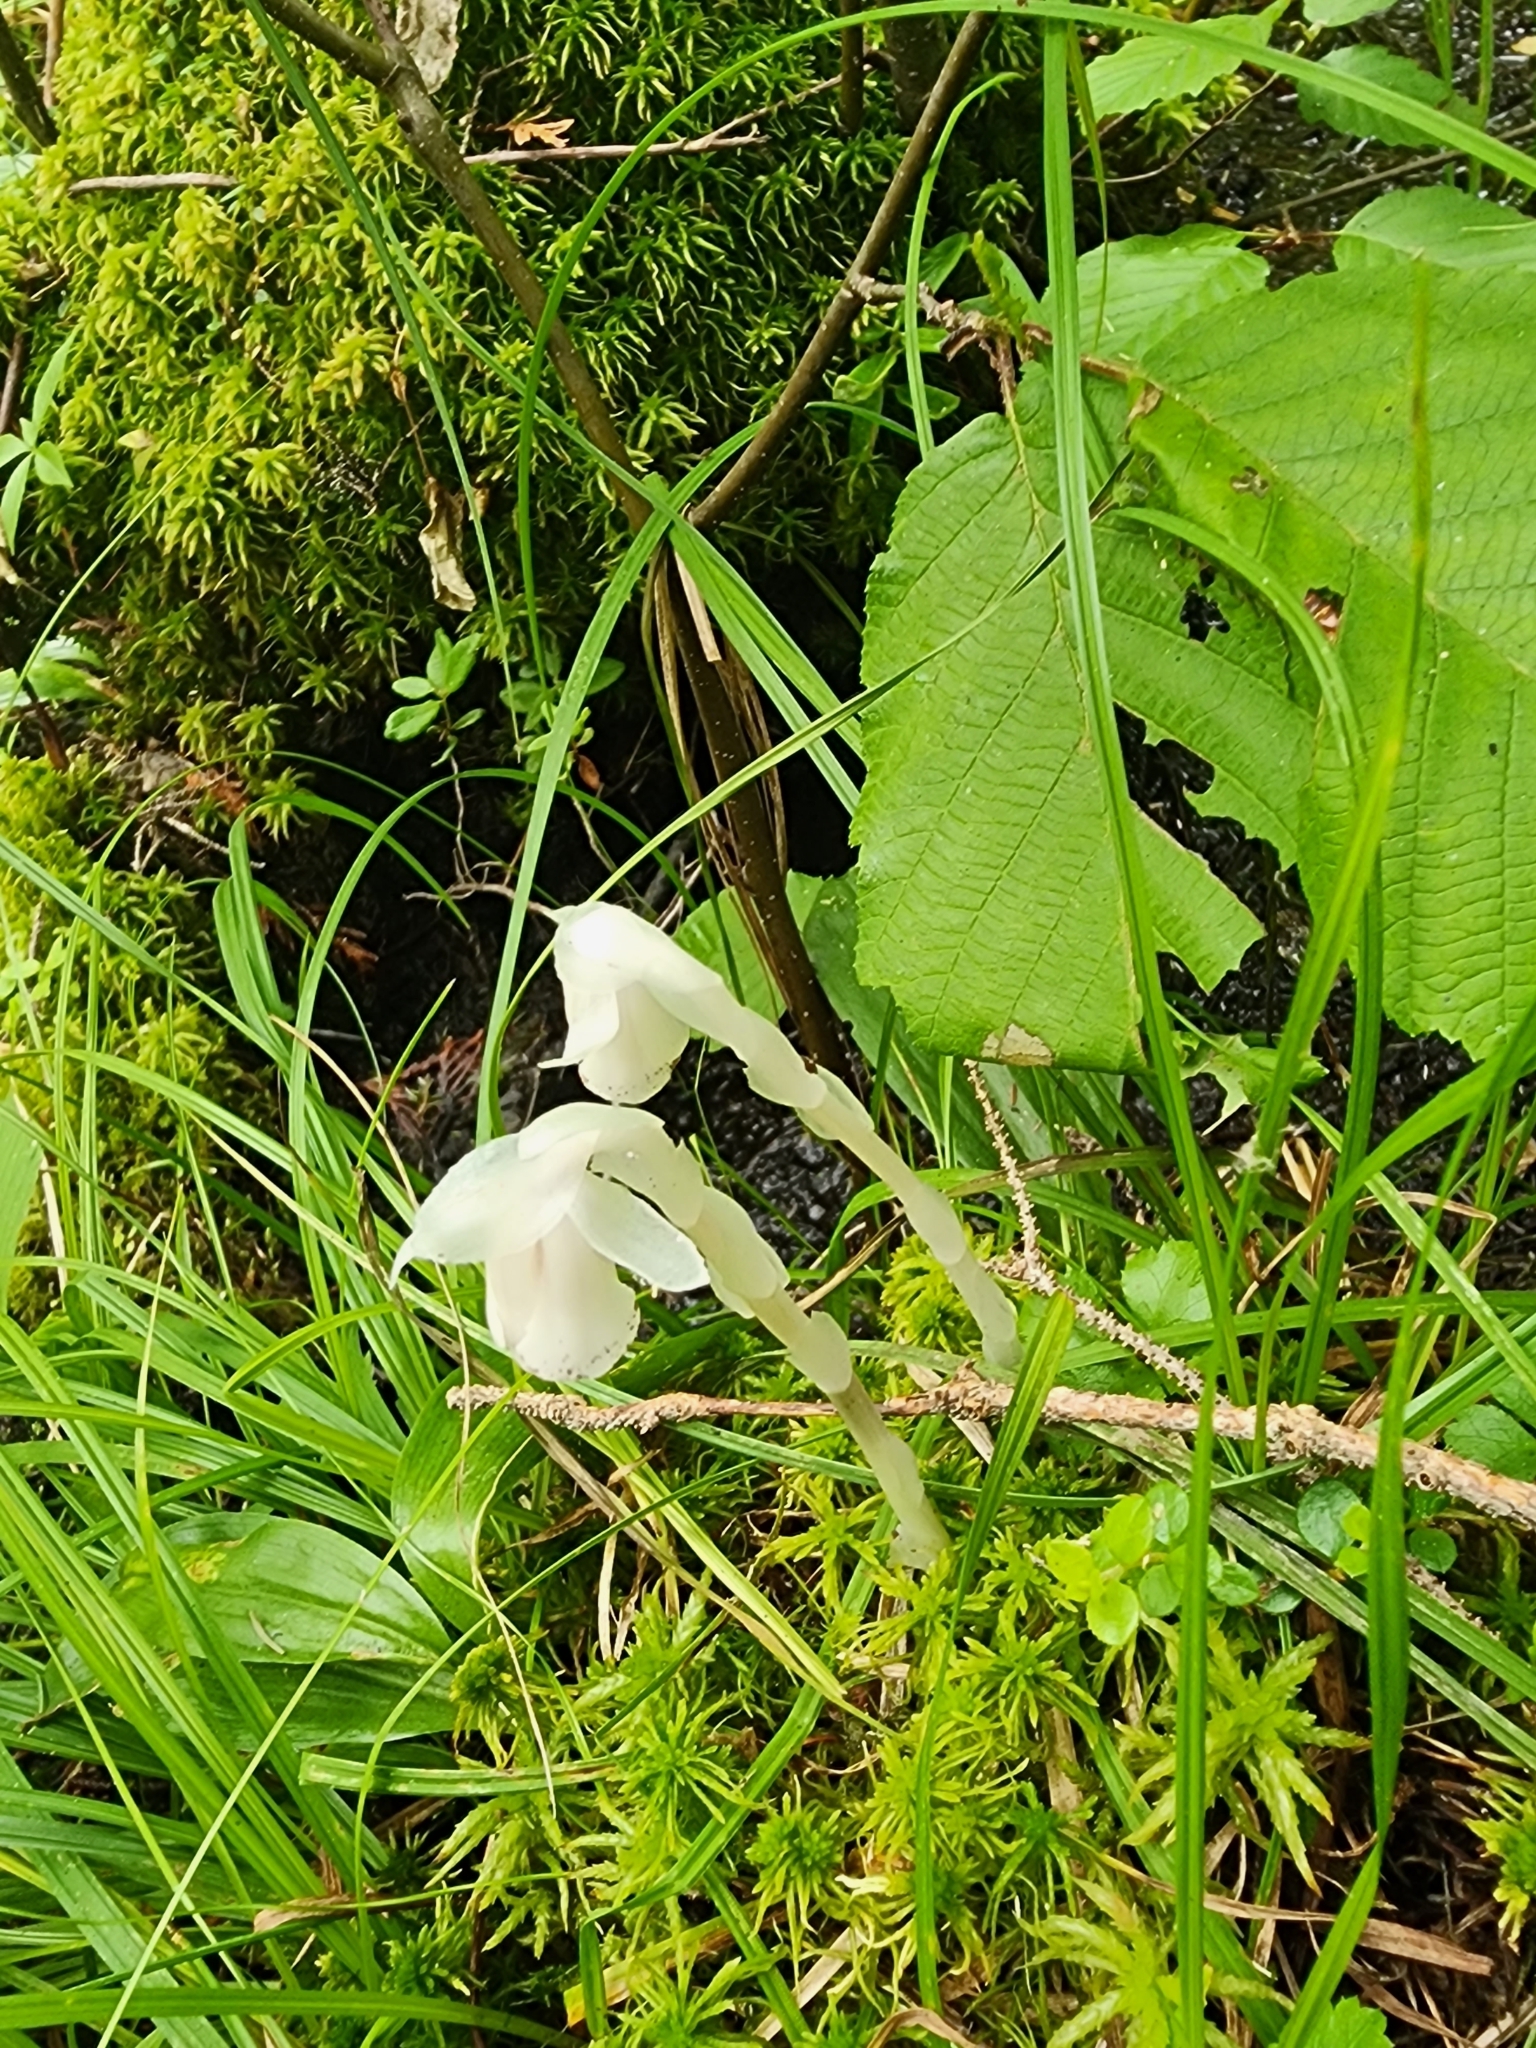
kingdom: Plantae
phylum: Tracheophyta
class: Magnoliopsida
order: Ericales
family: Ericaceae
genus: Monotropa
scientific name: Monotropa uniflora
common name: Convulsion root
